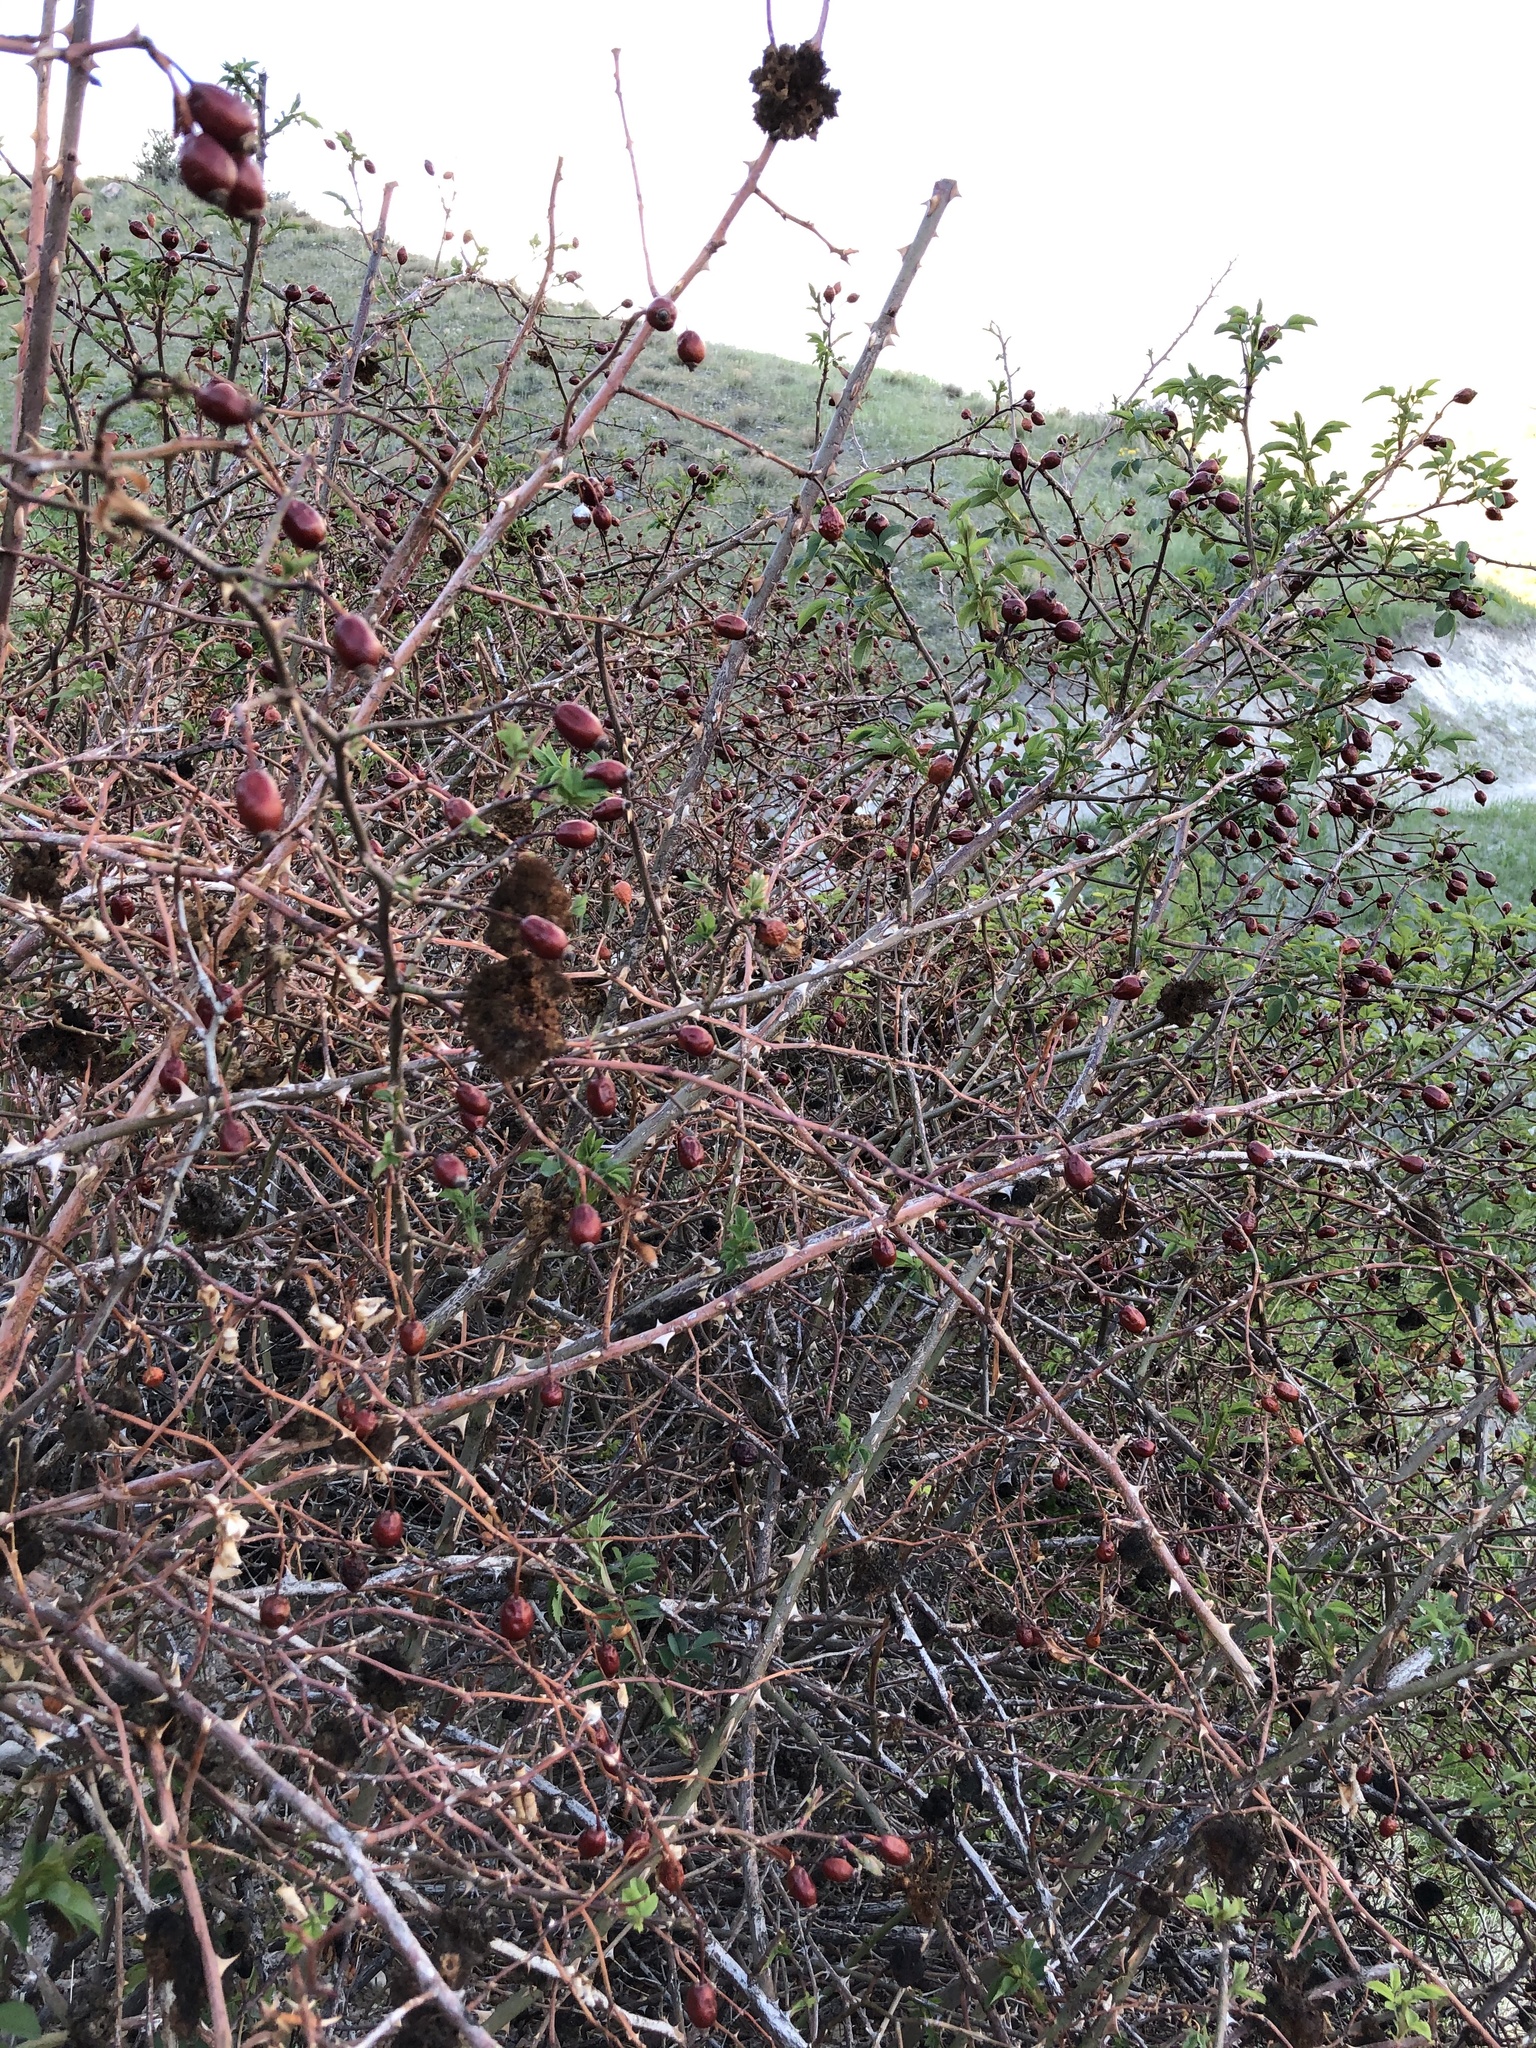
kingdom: Animalia
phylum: Arthropoda
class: Insecta
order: Hymenoptera
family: Cynipidae
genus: Diplolepis
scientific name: Diplolepis rosae
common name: Bedeguar gall
